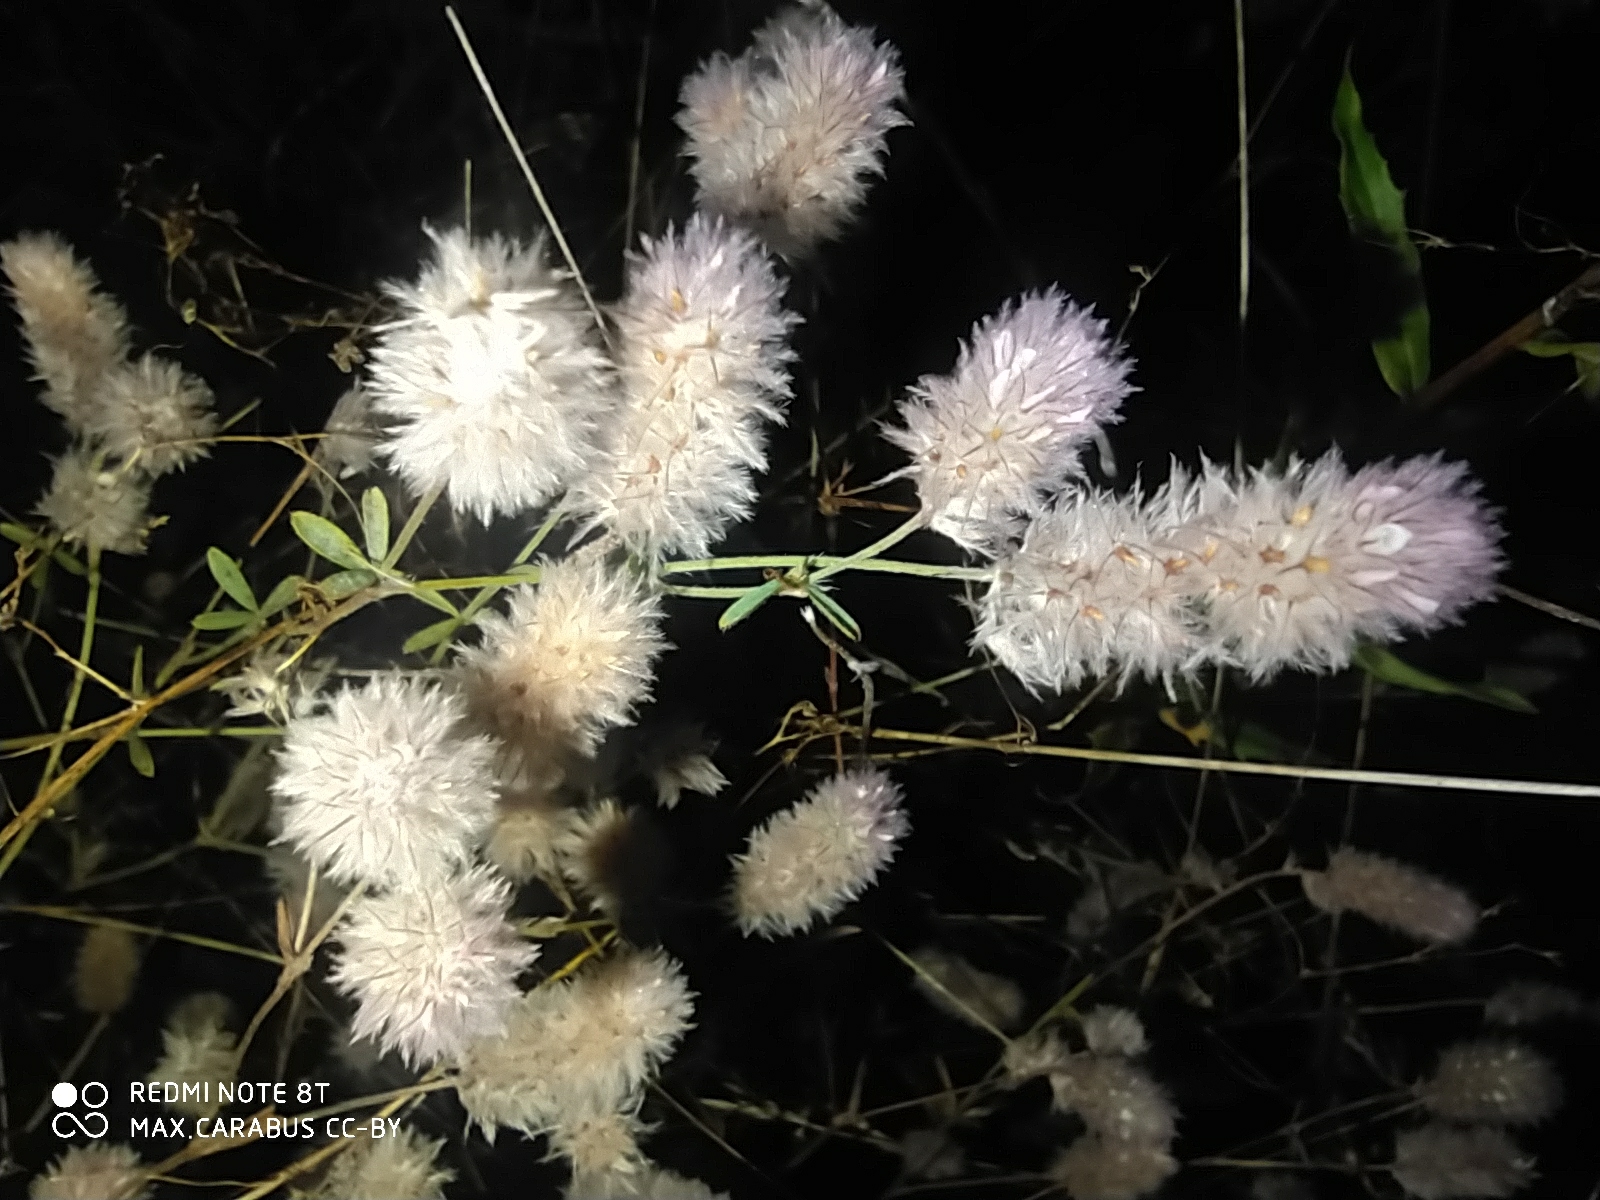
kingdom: Plantae
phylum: Tracheophyta
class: Magnoliopsida
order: Fabales
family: Fabaceae
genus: Trifolium
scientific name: Trifolium arvense
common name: Hare's-foot clover
